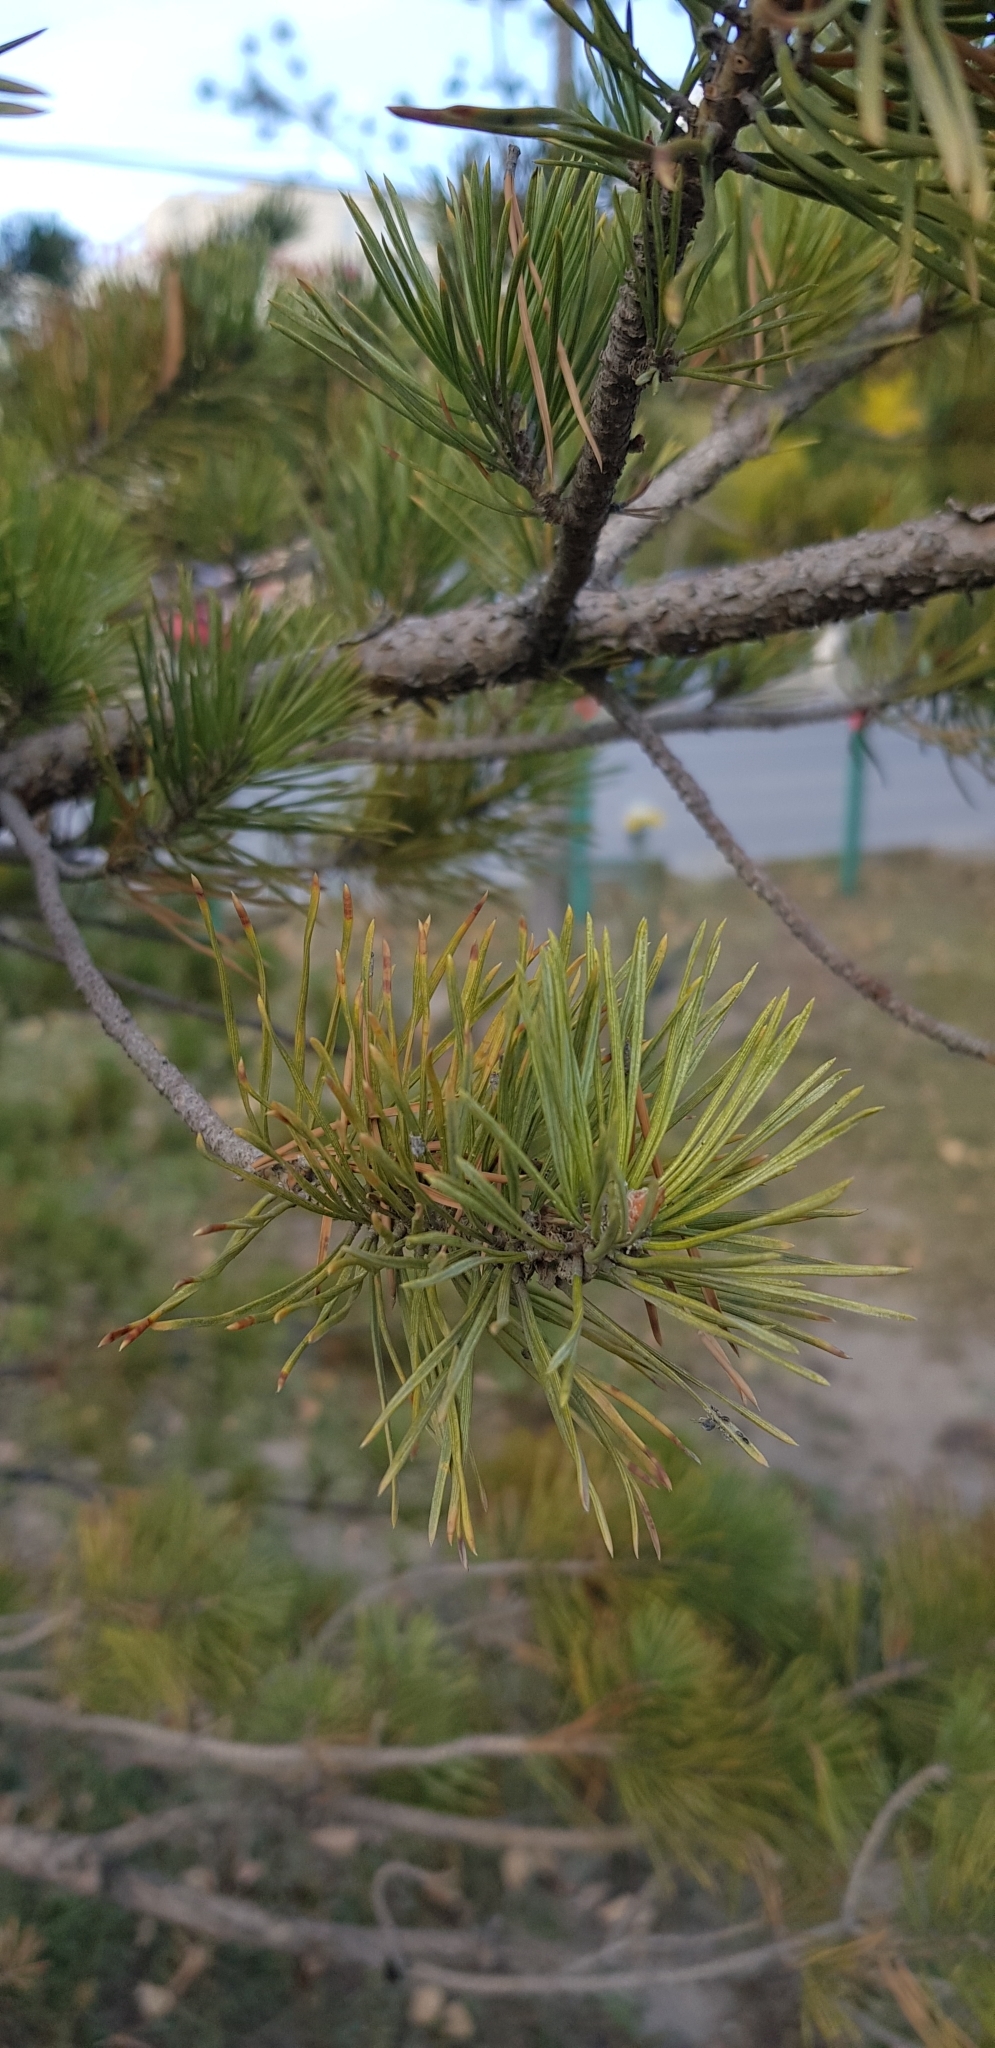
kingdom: Plantae
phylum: Tracheophyta
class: Pinopsida
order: Pinales
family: Pinaceae
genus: Pinus
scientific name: Pinus sylvestris
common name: Scots pine
